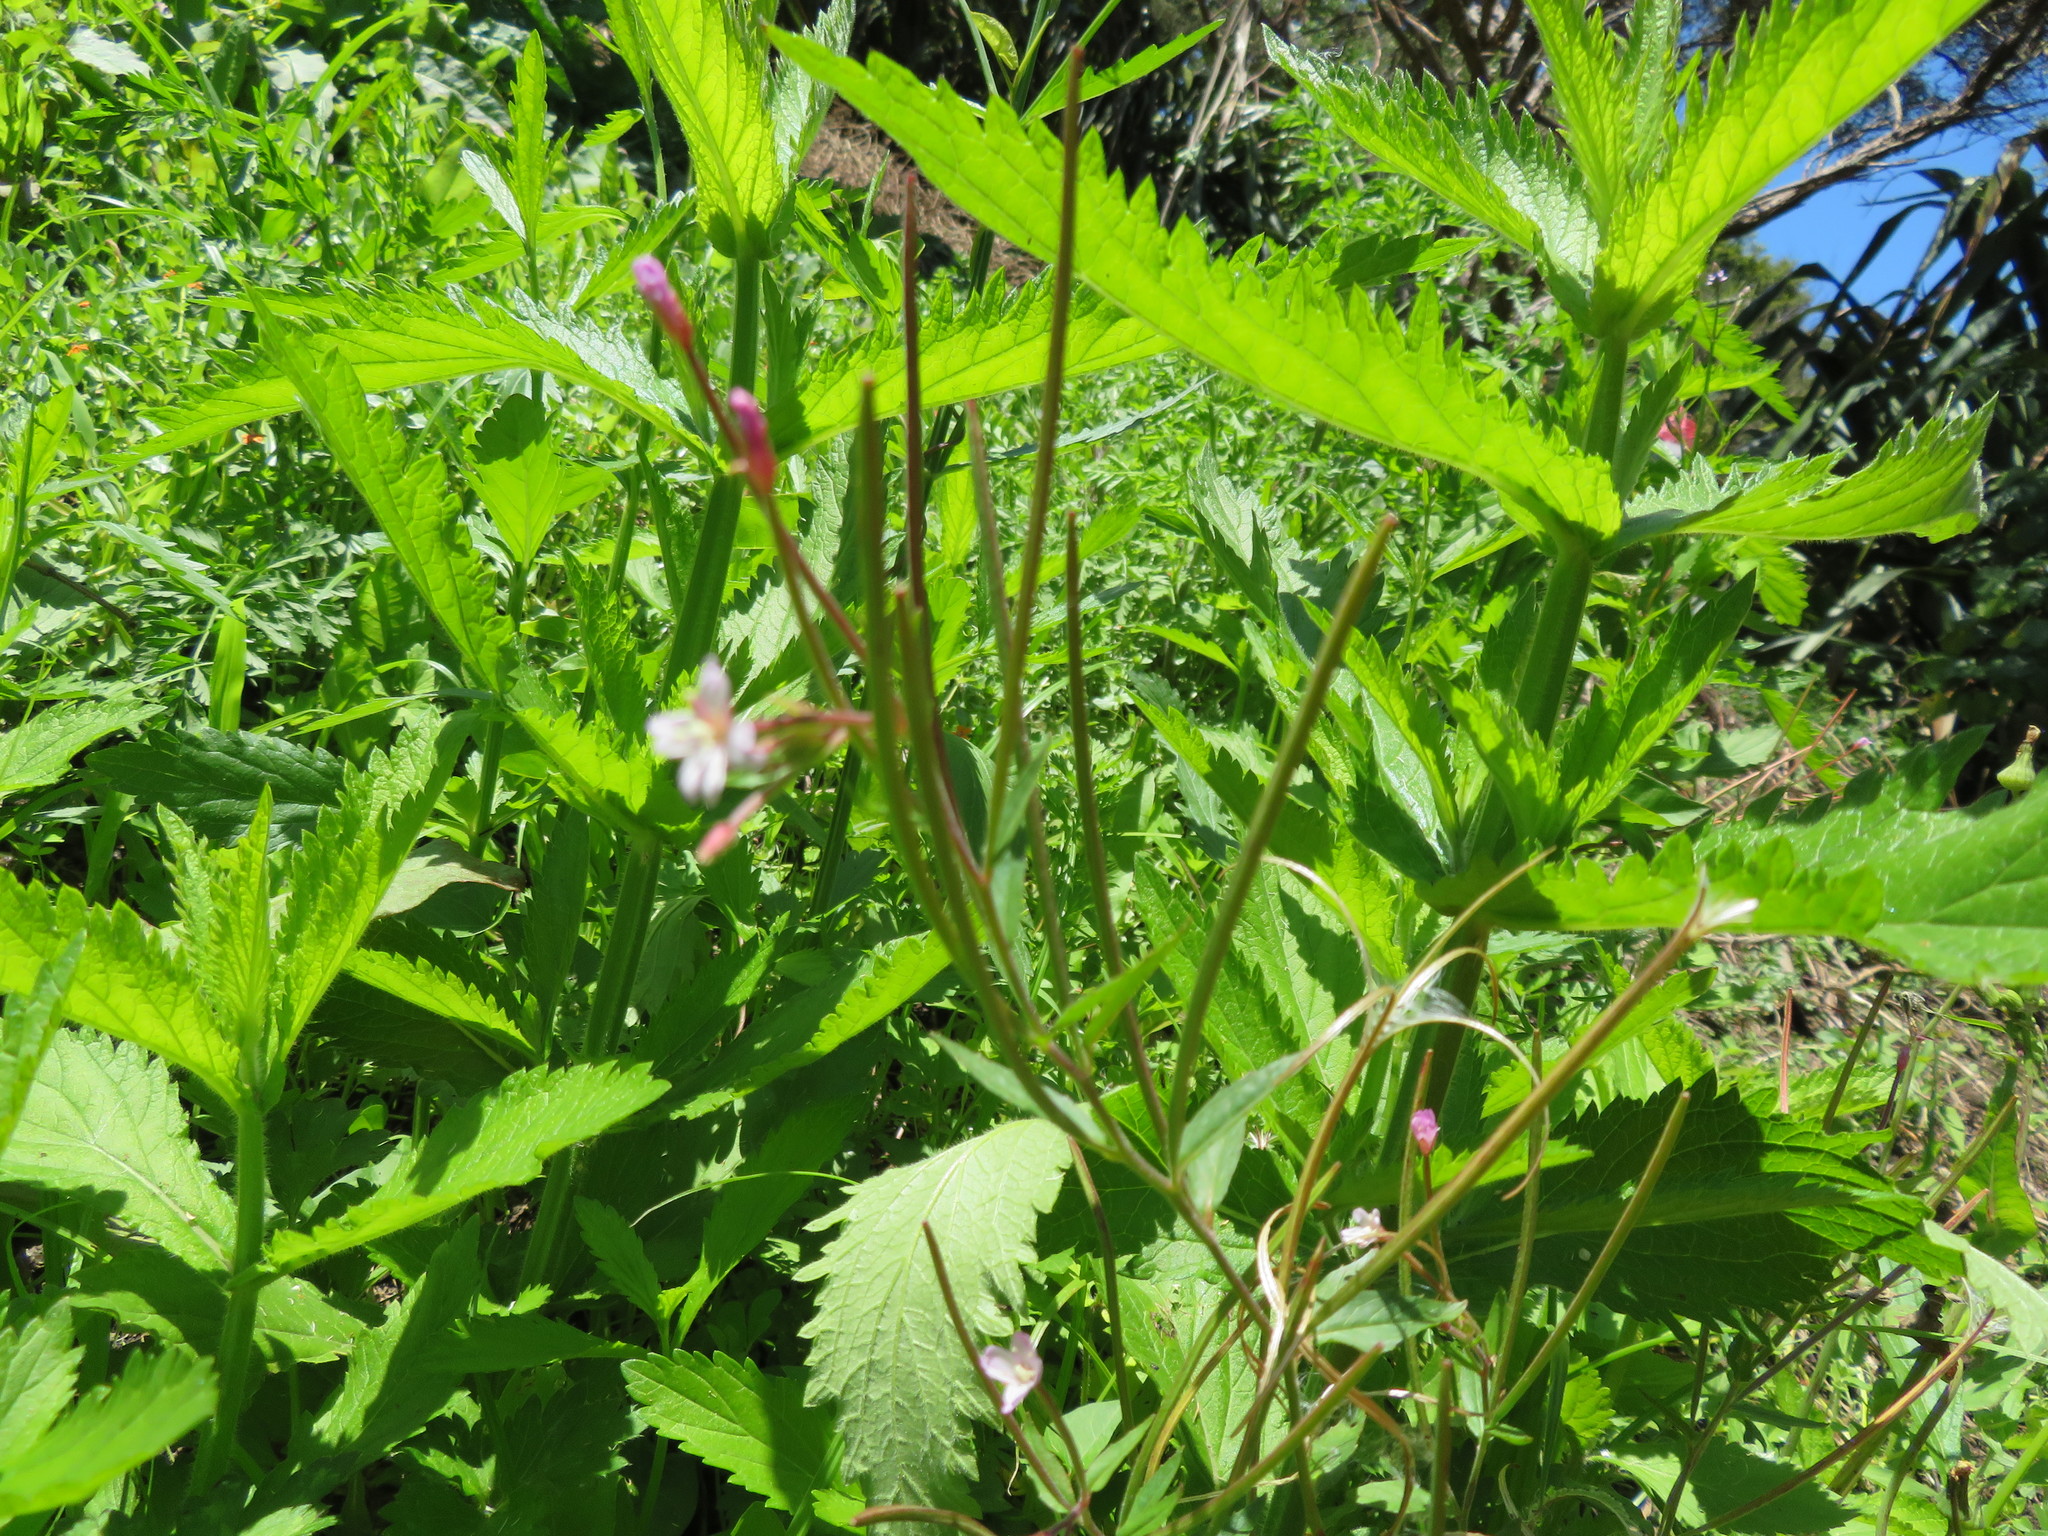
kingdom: Plantae
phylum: Tracheophyta
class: Magnoliopsida
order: Lamiales
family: Verbenaceae
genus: Verbena
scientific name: Verbena incompta
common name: Purpletop vervain
